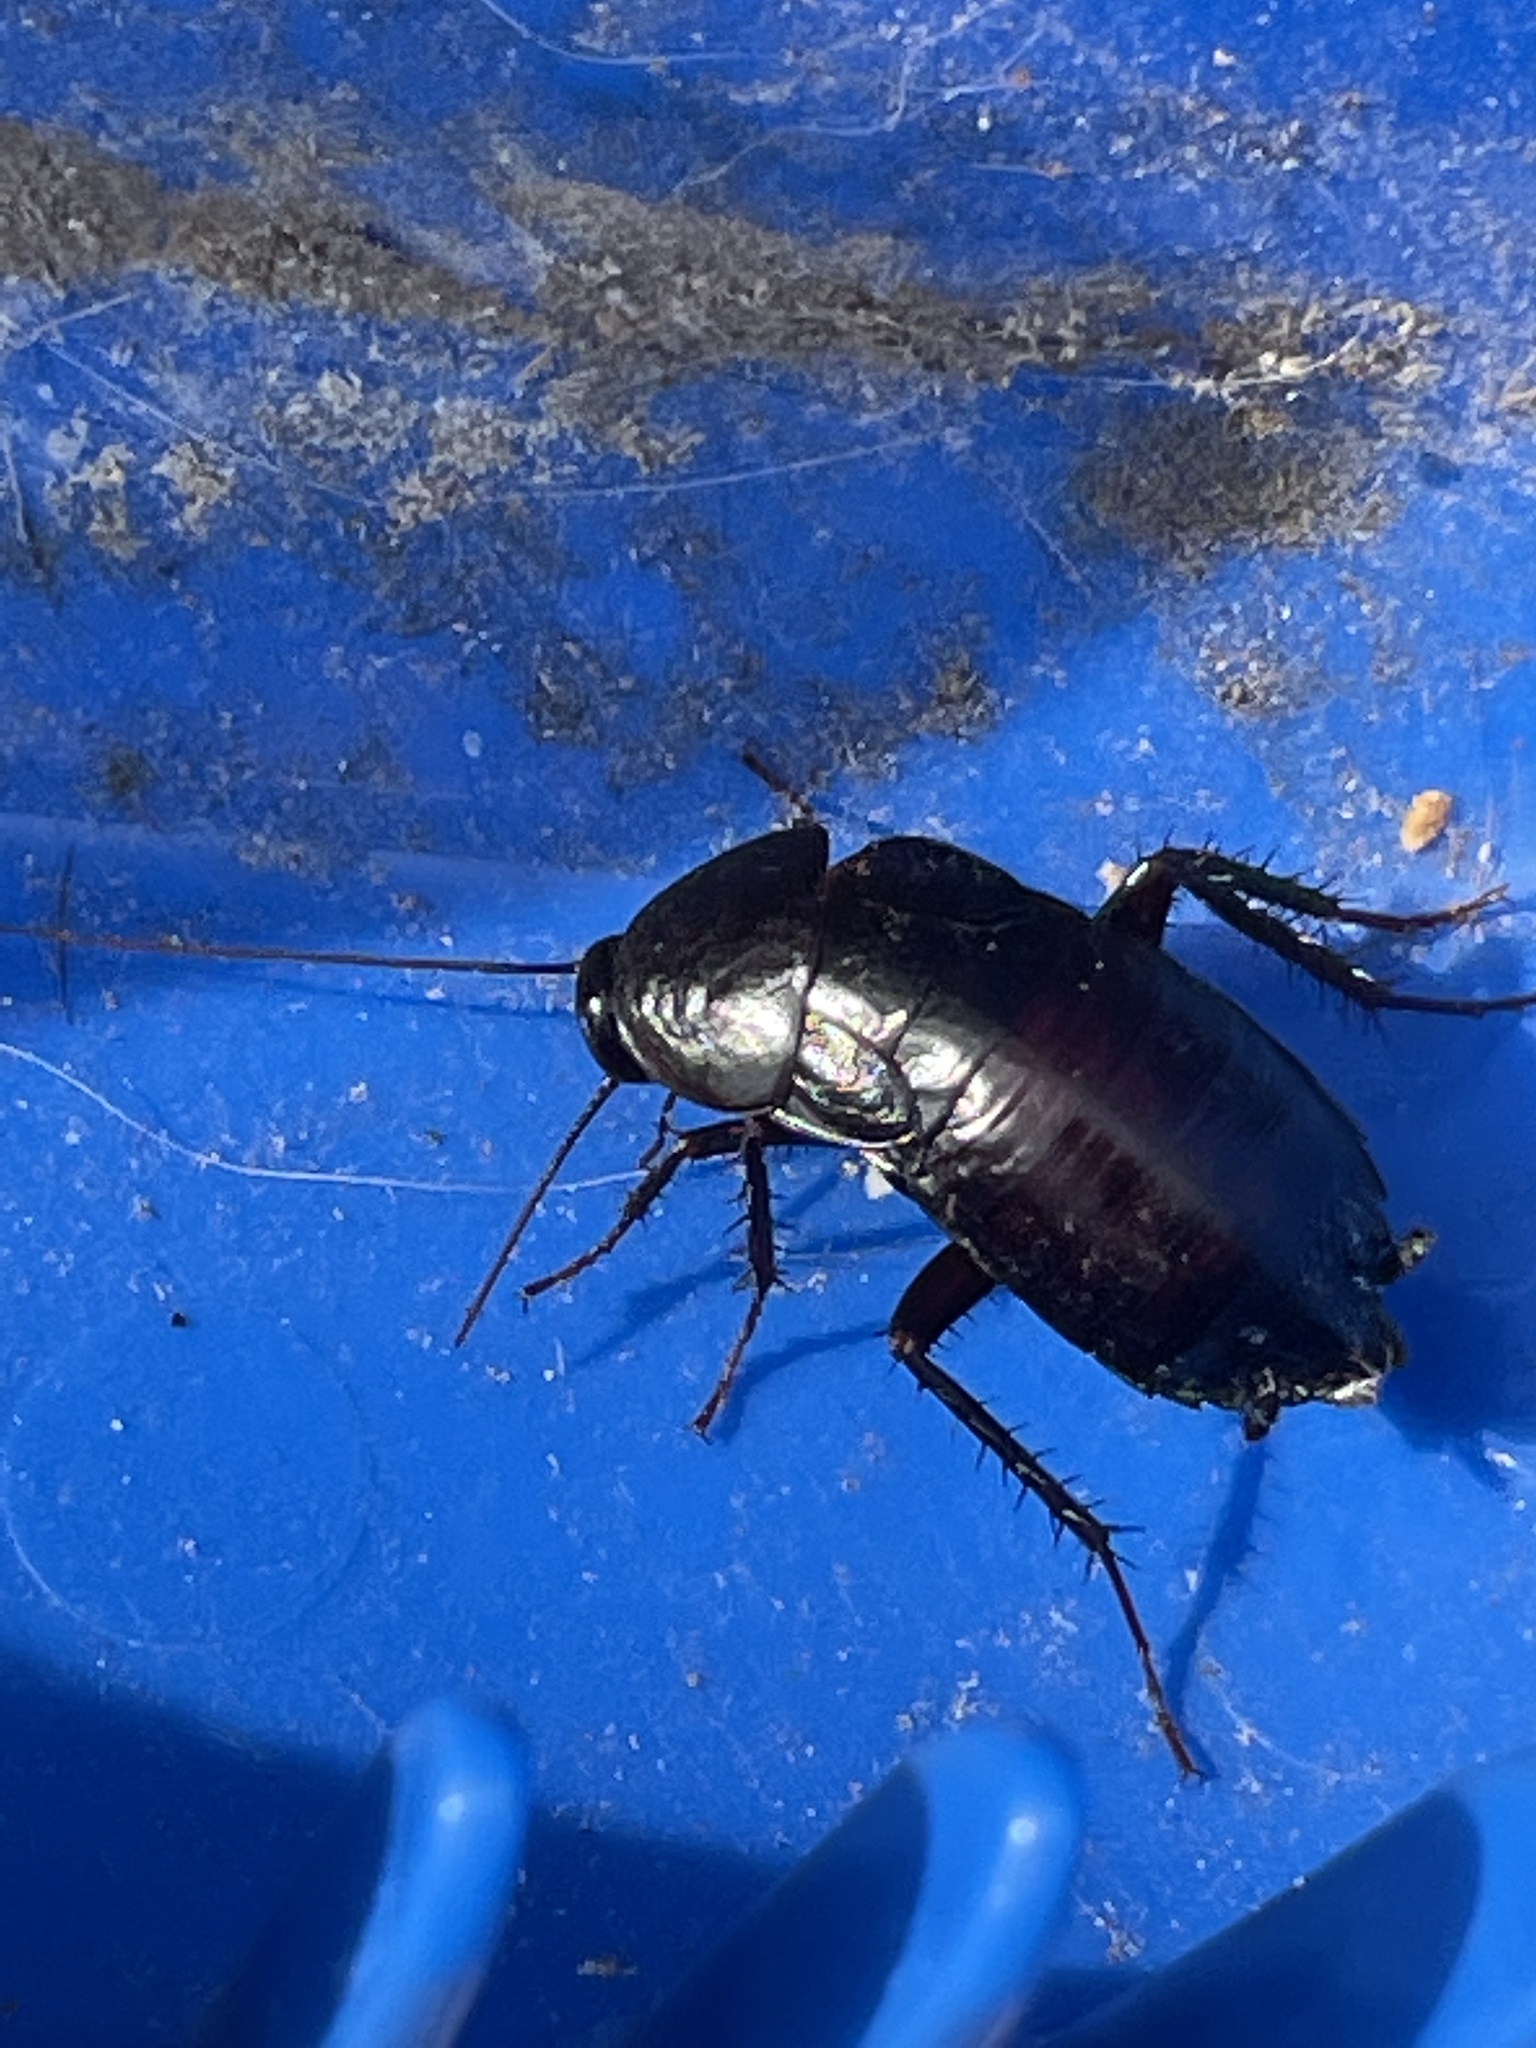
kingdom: Animalia
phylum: Arthropoda
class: Insecta
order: Blattodea
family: Blattidae
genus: Blatta
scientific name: Blatta orientalis
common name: Oriental cockroach
